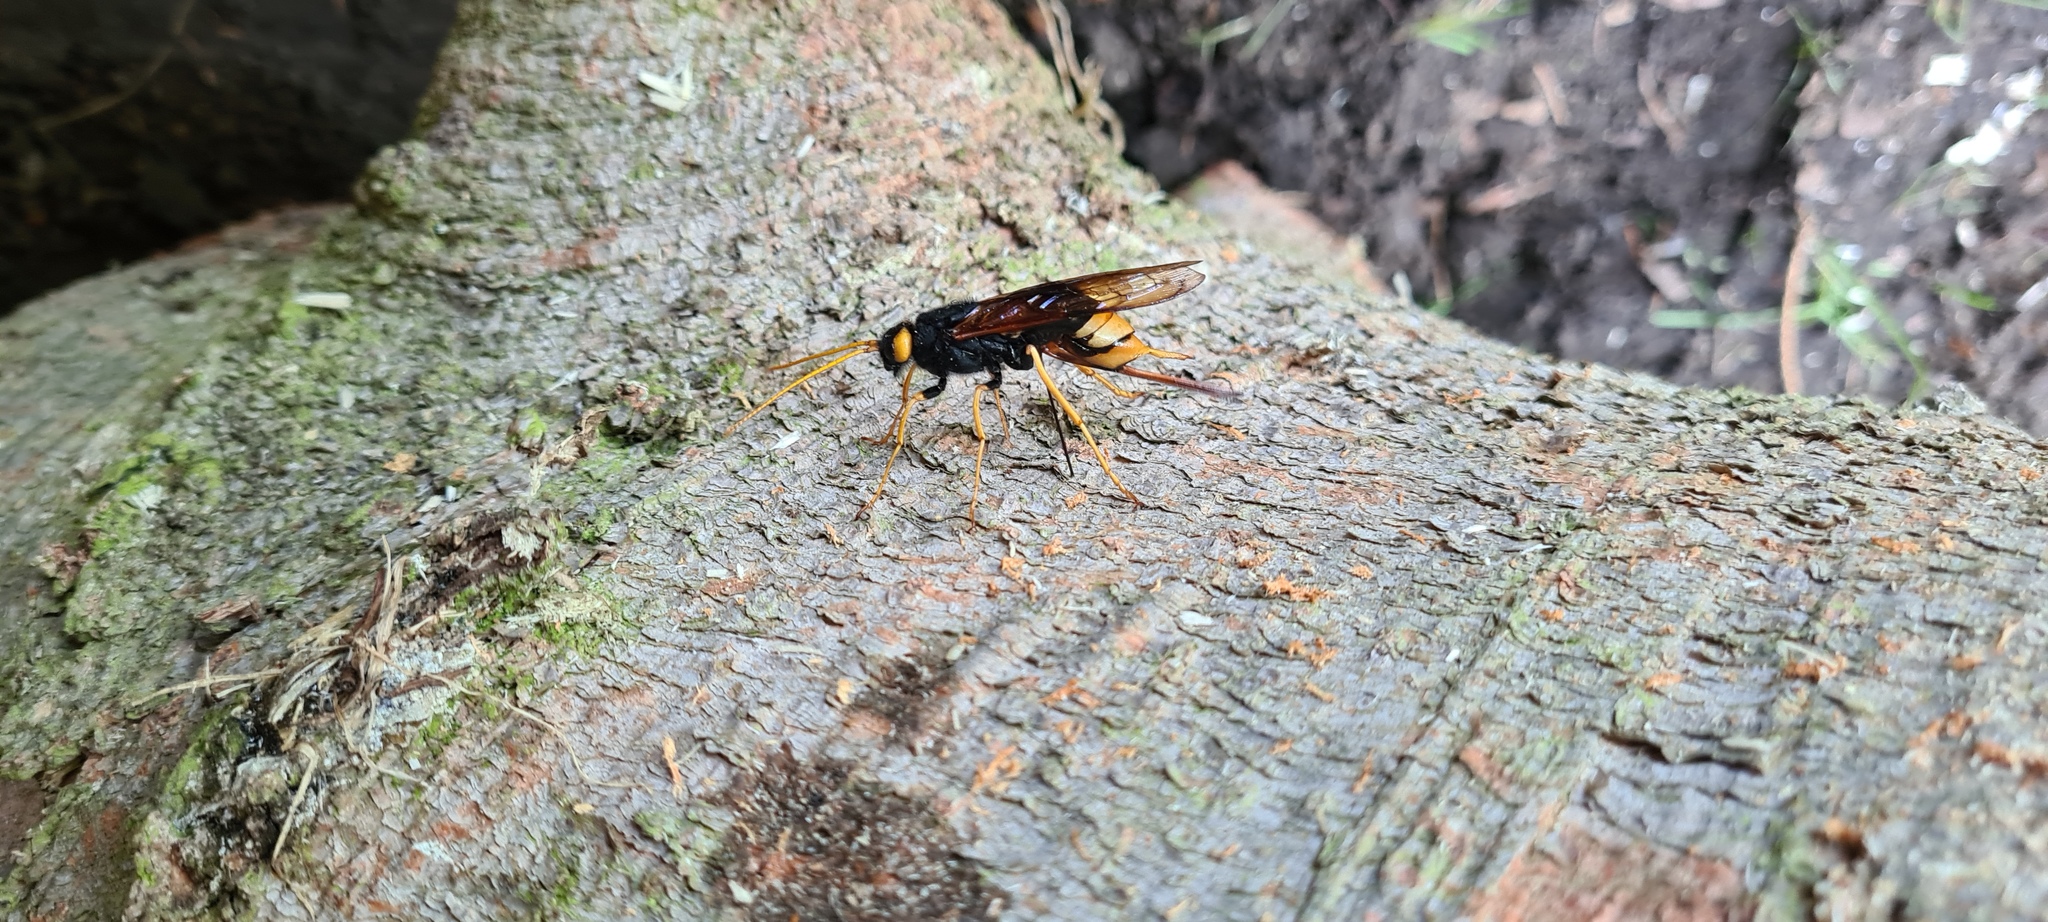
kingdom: Animalia
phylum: Arthropoda
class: Insecta
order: Hymenoptera
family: Siricidae
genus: Urocerus
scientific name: Urocerus gigas
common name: Giant woodwasp
